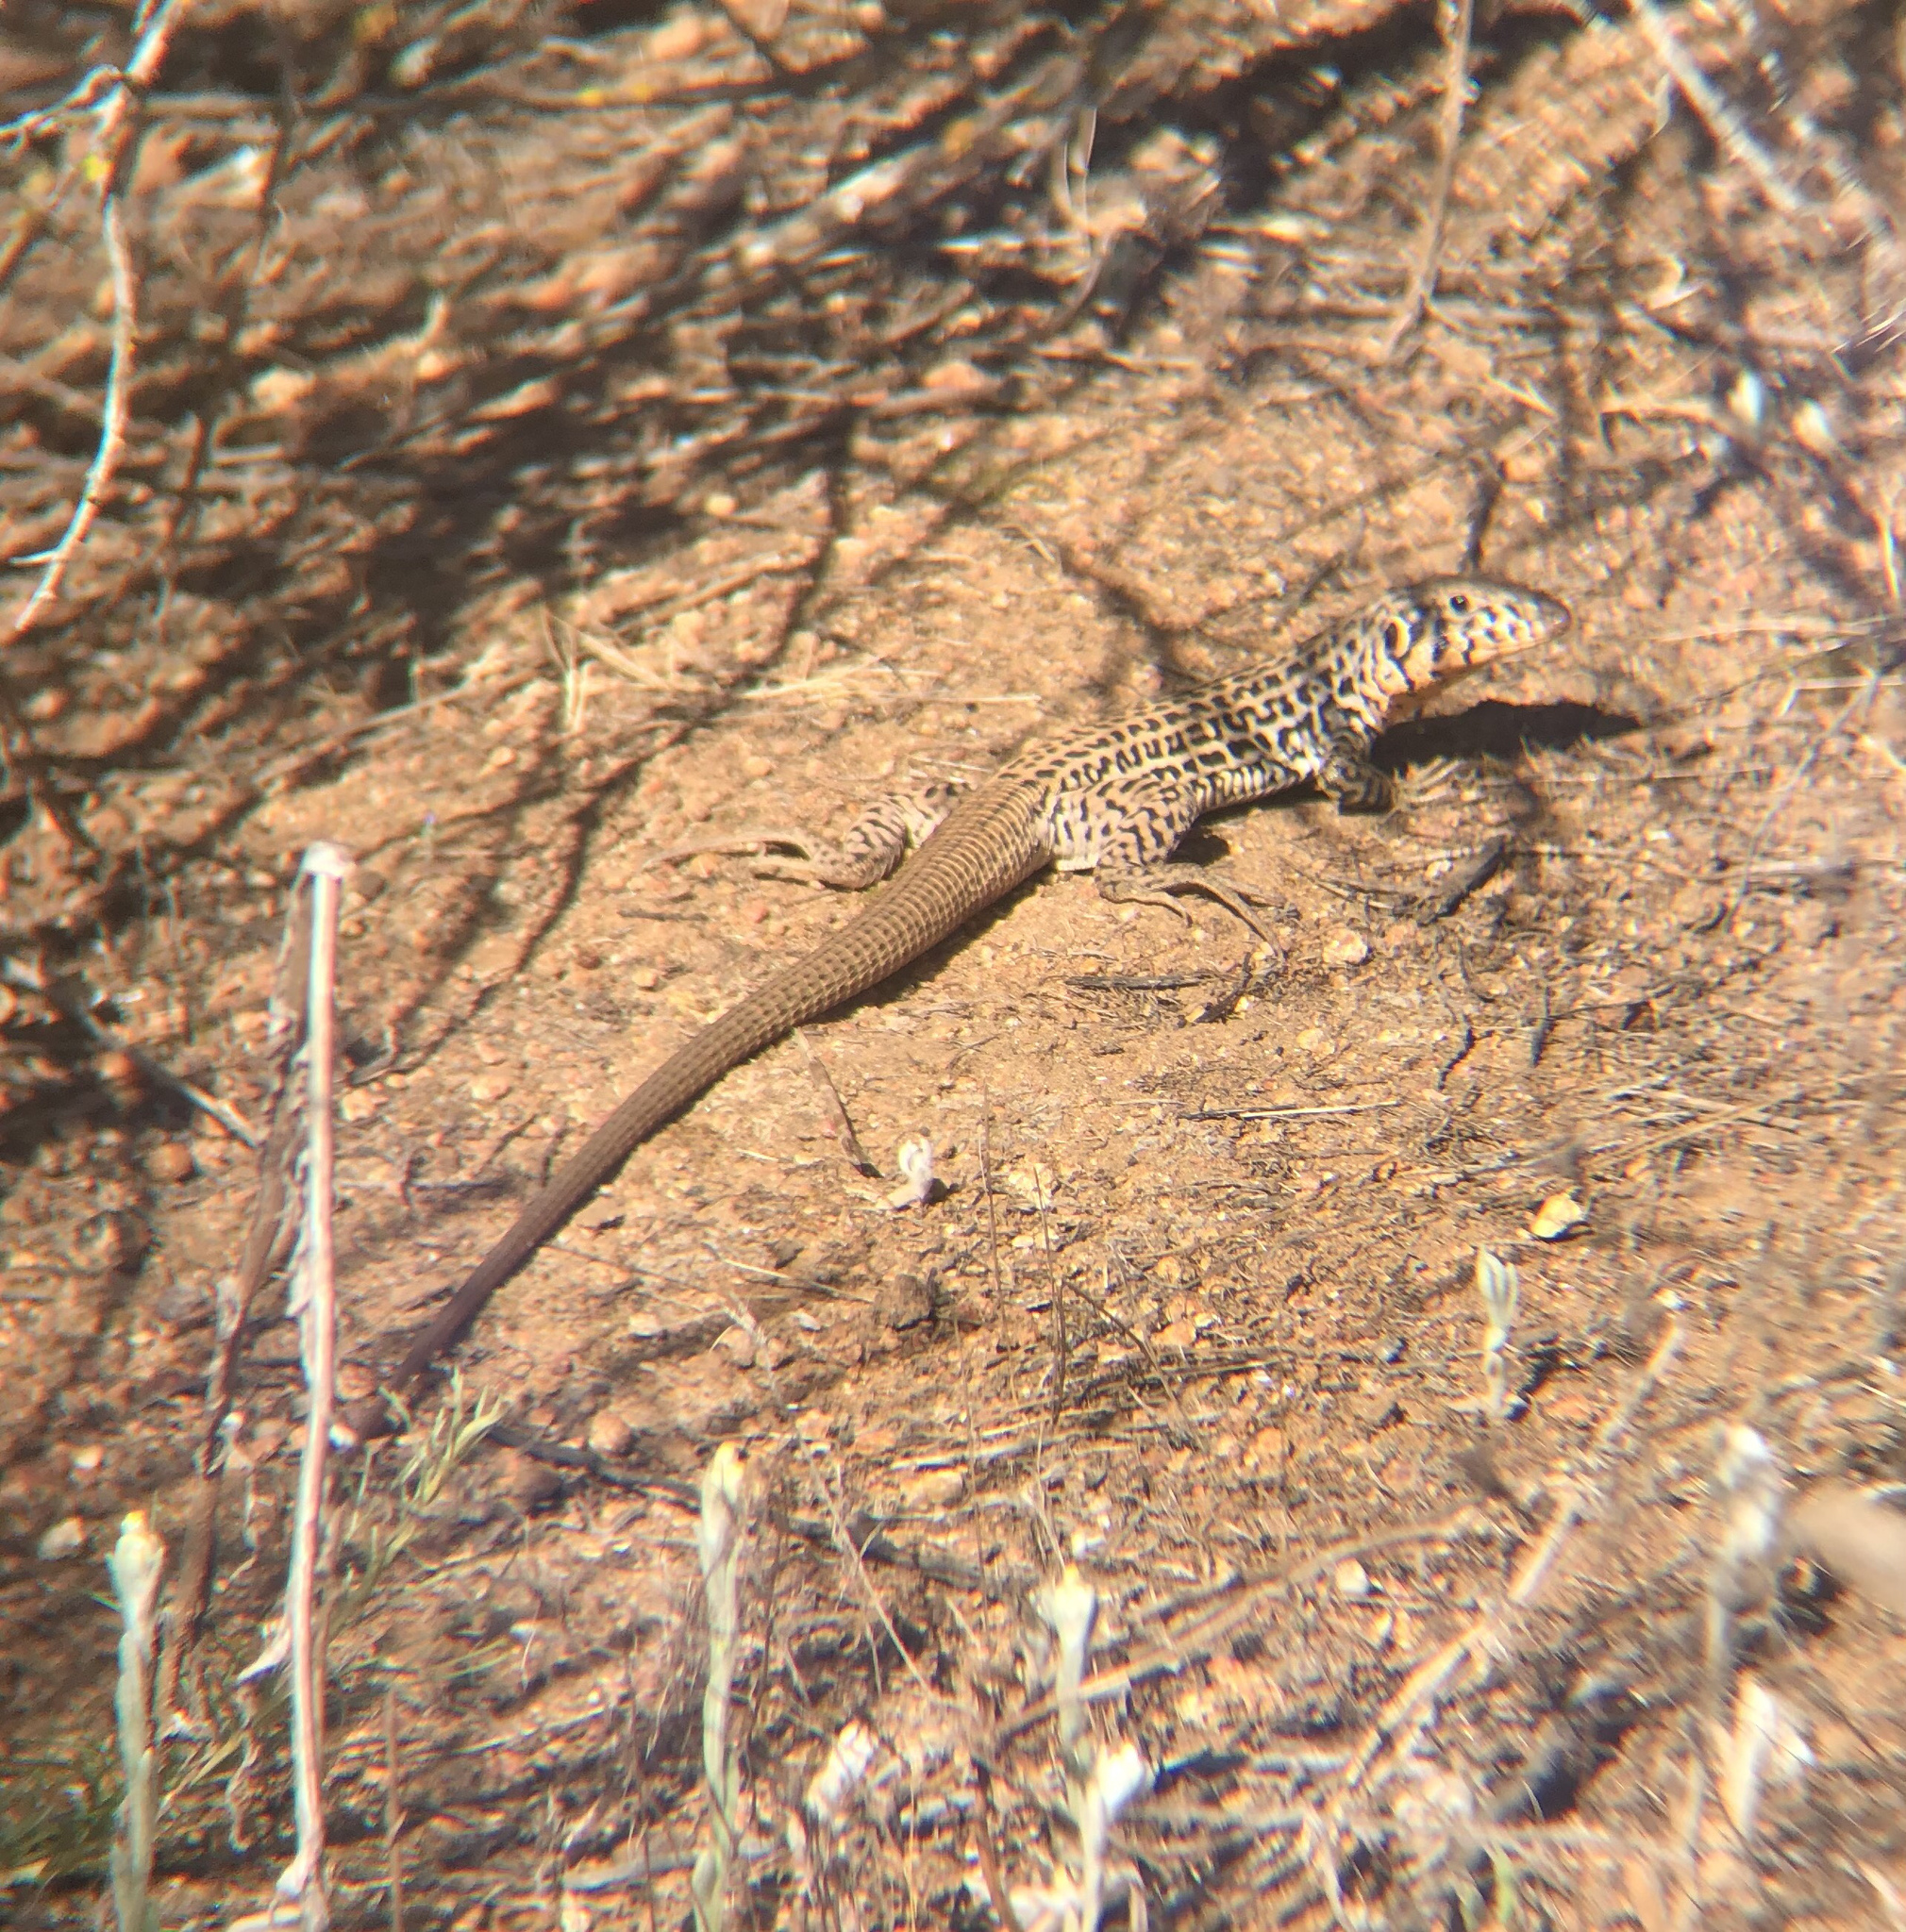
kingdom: Animalia
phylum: Chordata
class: Squamata
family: Teiidae
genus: Aspidoscelis
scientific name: Aspidoscelis tigris
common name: Tiger whiptail
